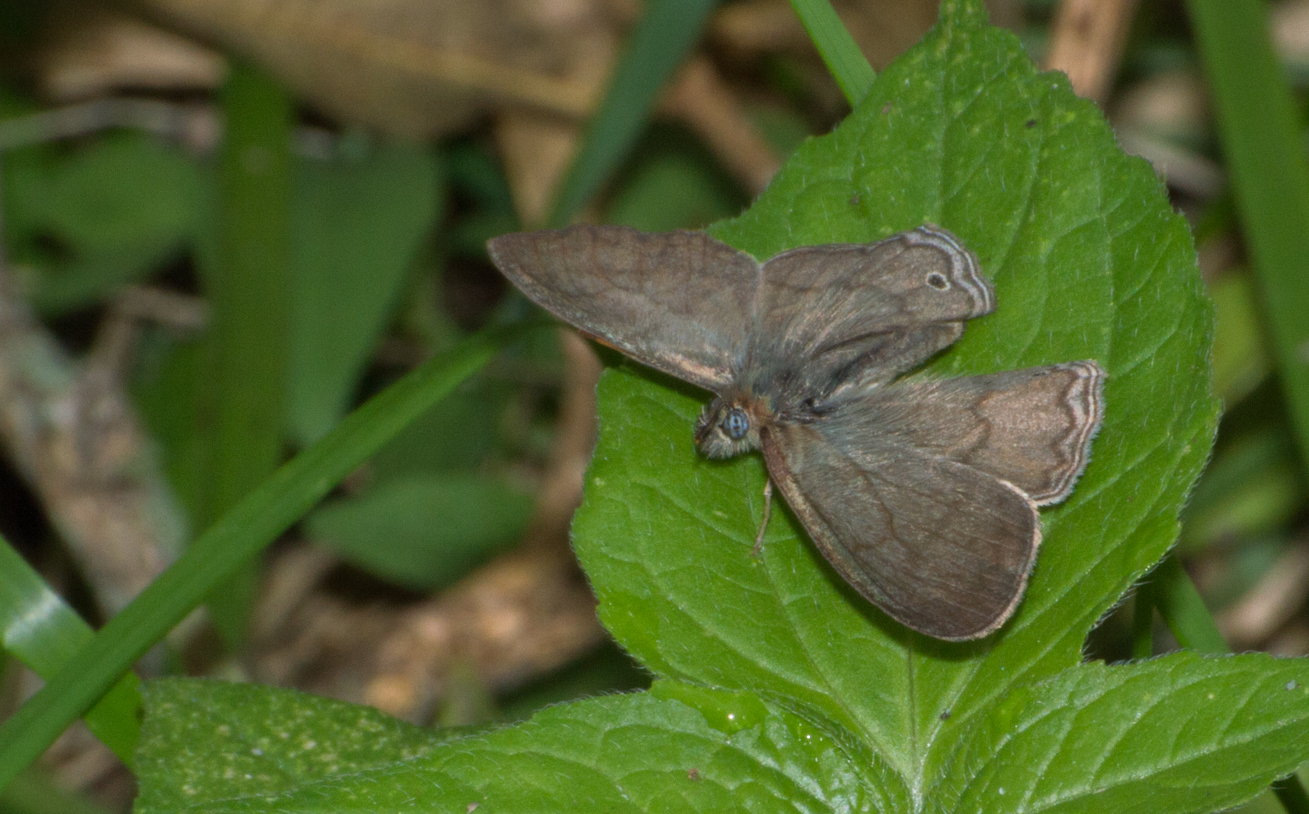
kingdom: Animalia
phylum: Arthropoda
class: Insecta
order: Lepidoptera
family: Nymphalidae
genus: Paryphthimoides
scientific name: Paryphthimoides poltys
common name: Poltys satyr
